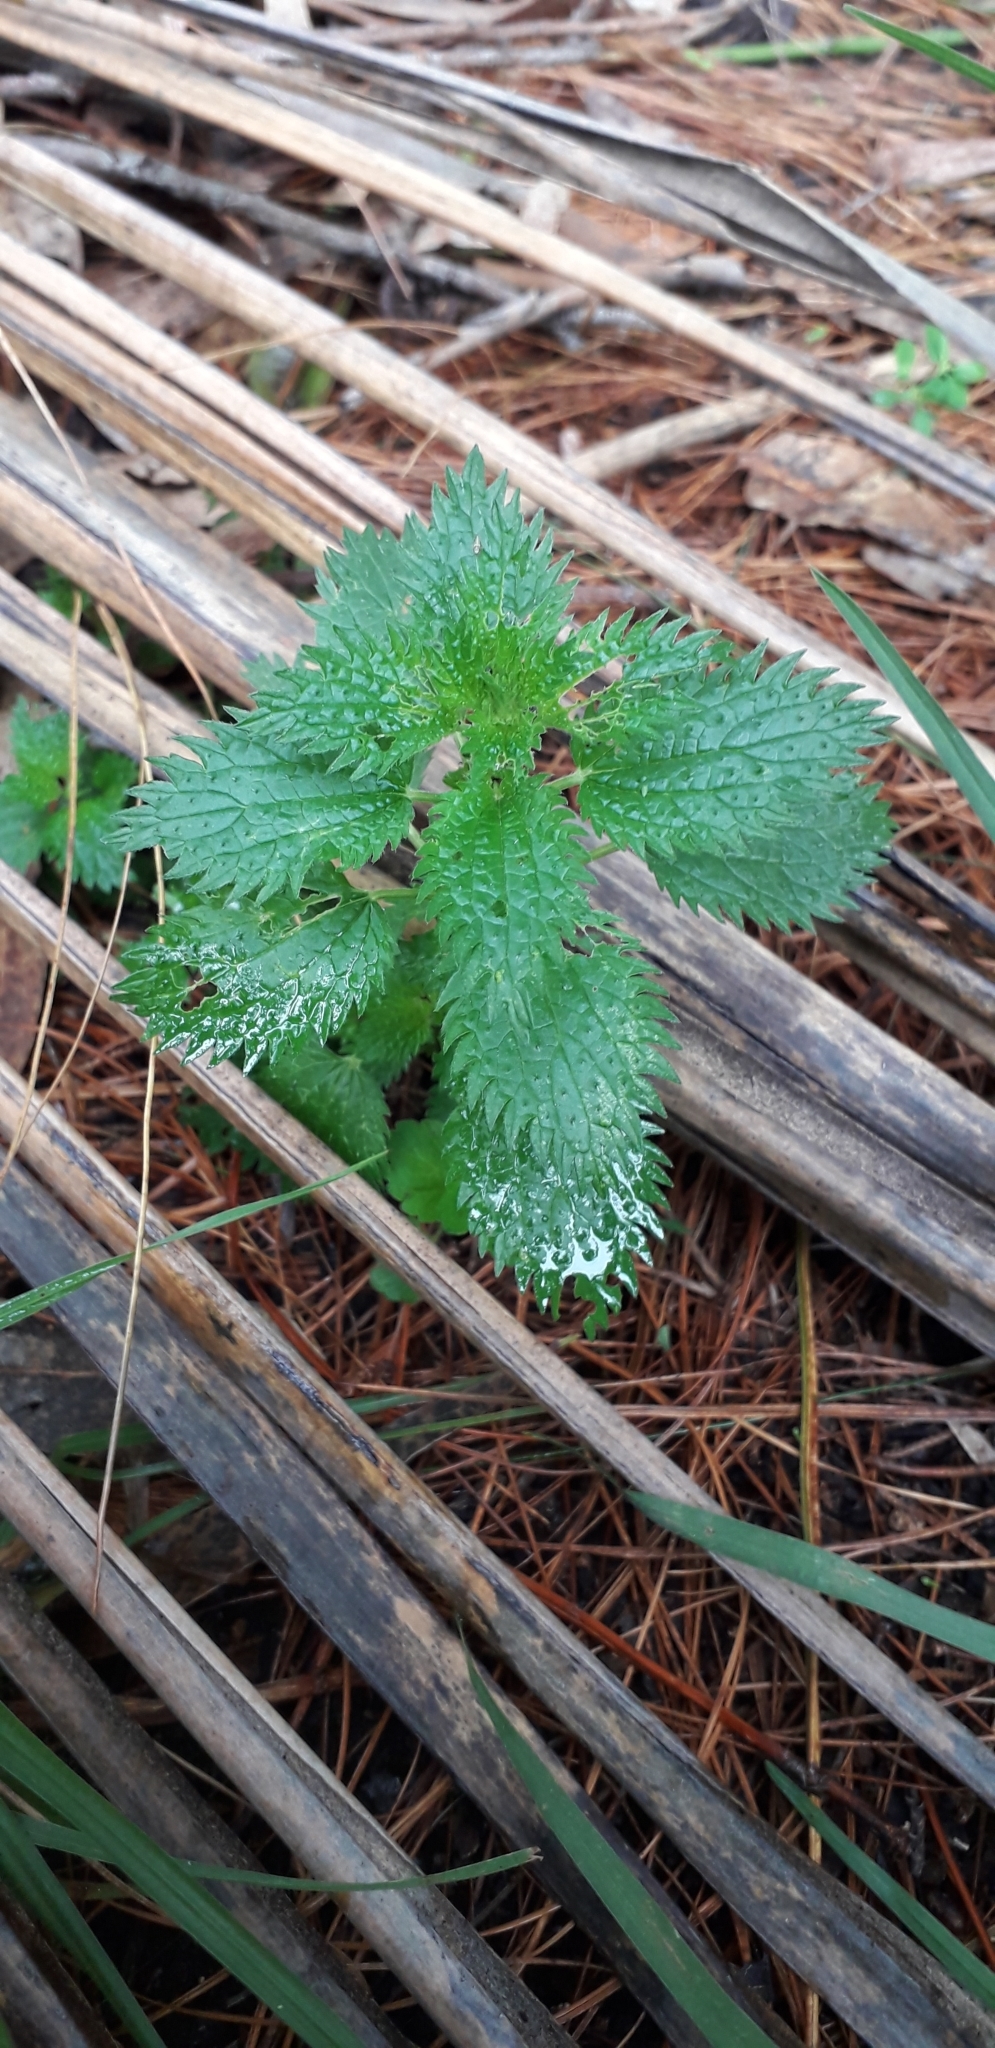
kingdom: Plantae
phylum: Tracheophyta
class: Magnoliopsida
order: Rosales
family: Urticaceae
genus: Urtica
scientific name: Urtica urens
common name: Dwarf nettle
